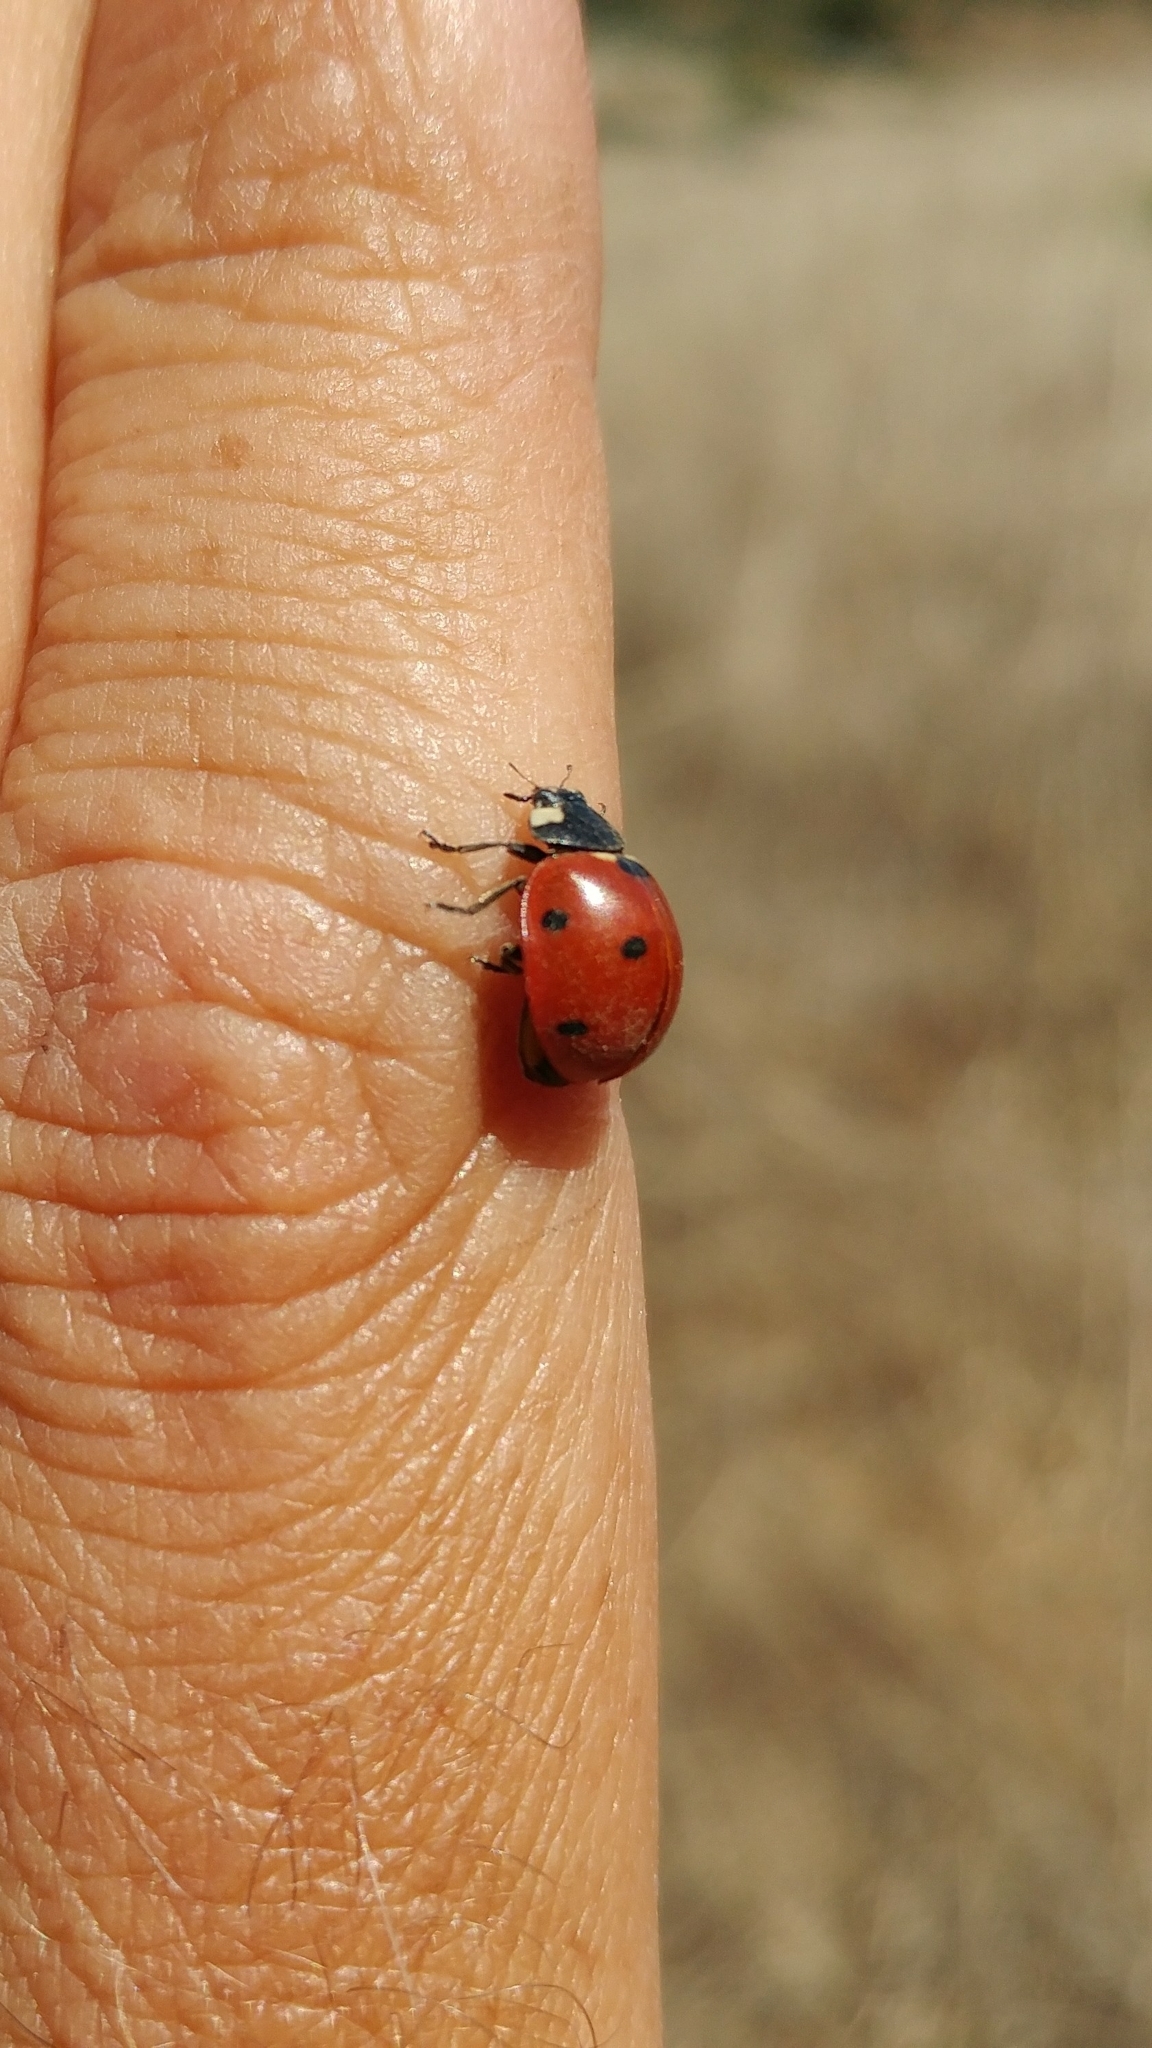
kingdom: Animalia
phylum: Arthropoda
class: Insecta
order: Coleoptera
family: Coccinellidae
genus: Coccinella
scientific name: Coccinella septempunctata
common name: Sevenspotted lady beetle
